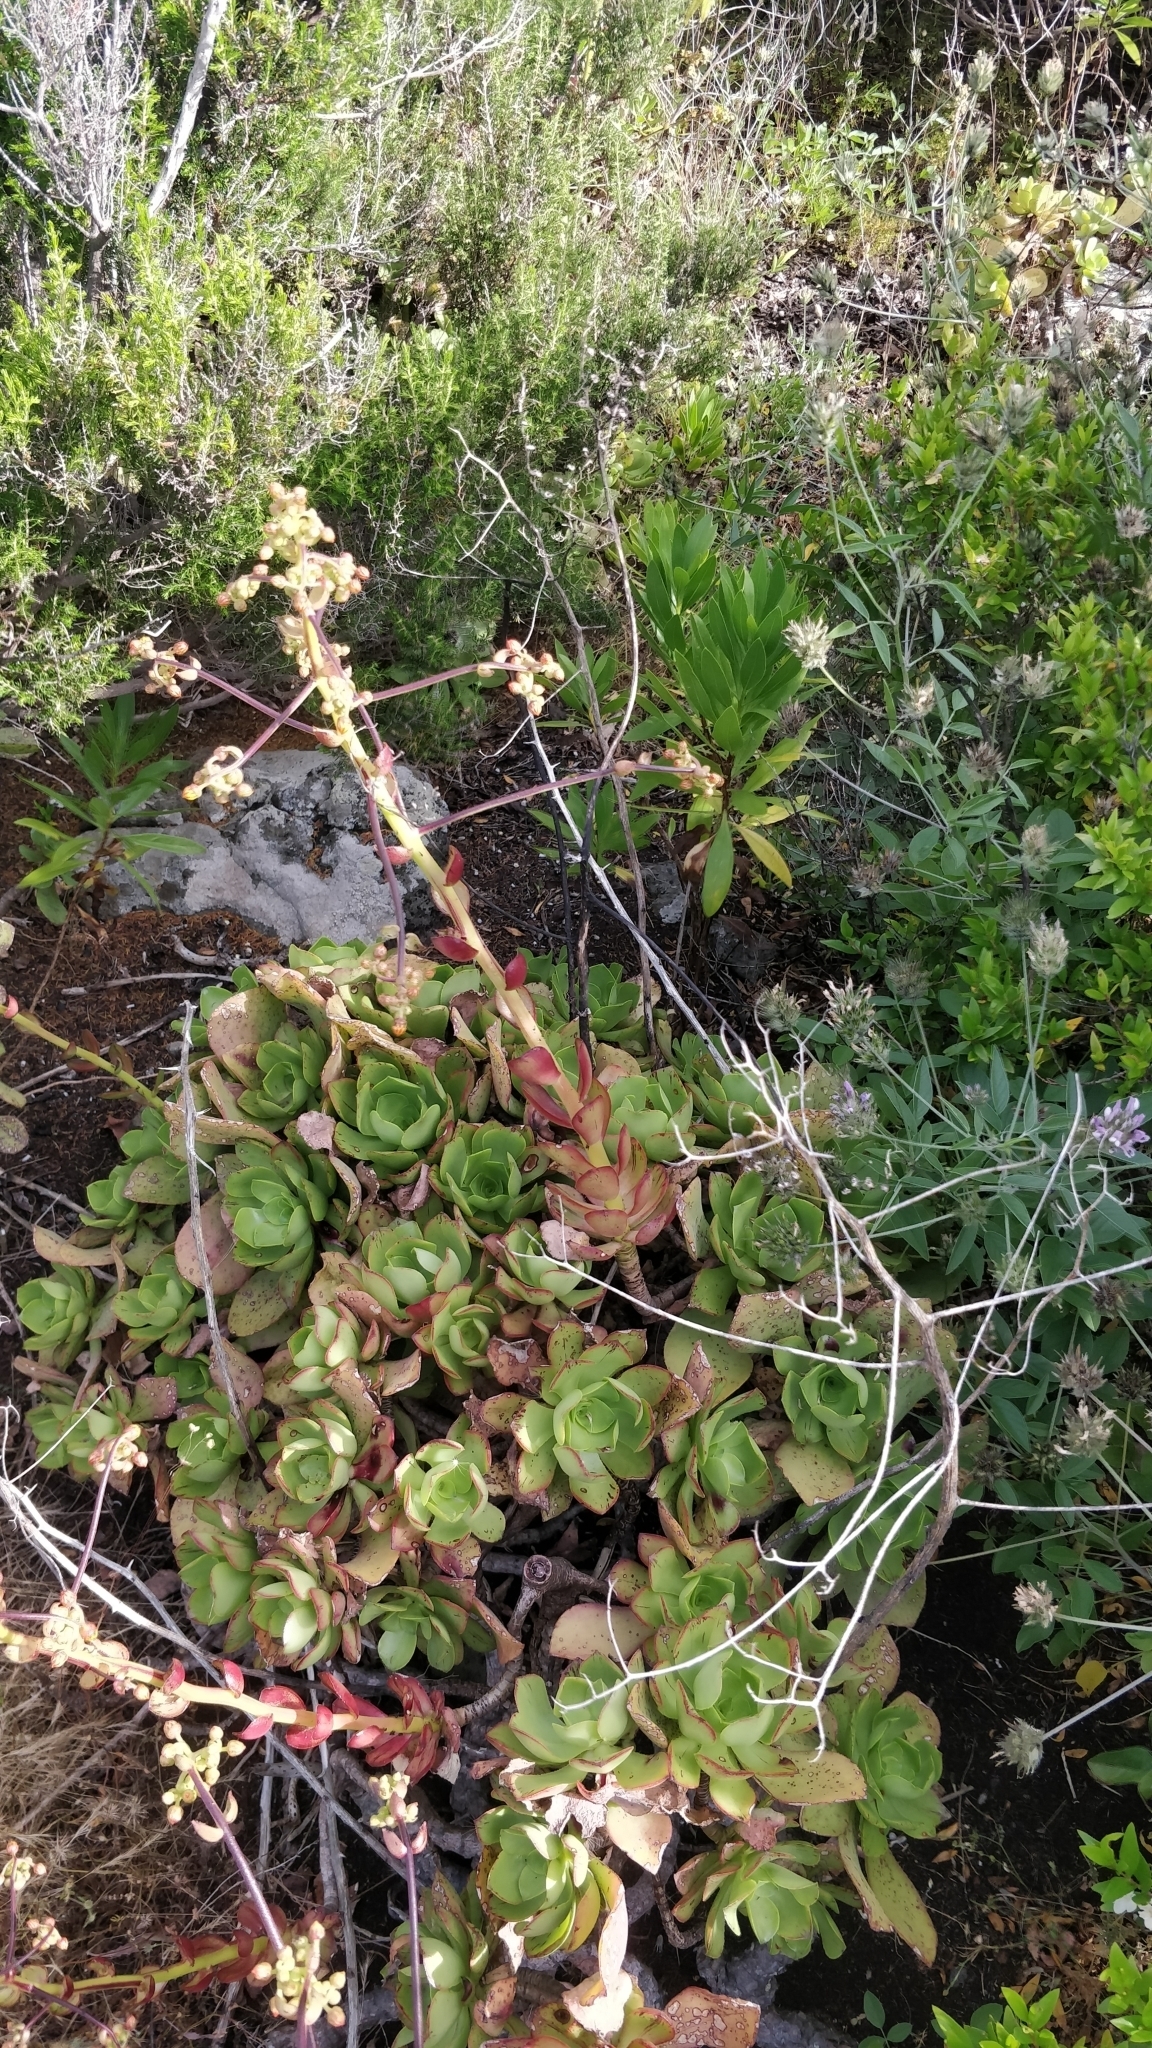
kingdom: Plantae
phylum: Tracheophyta
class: Magnoliopsida
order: Saxifragales
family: Crassulaceae
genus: Aeonium
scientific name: Aeonium glutinosum
